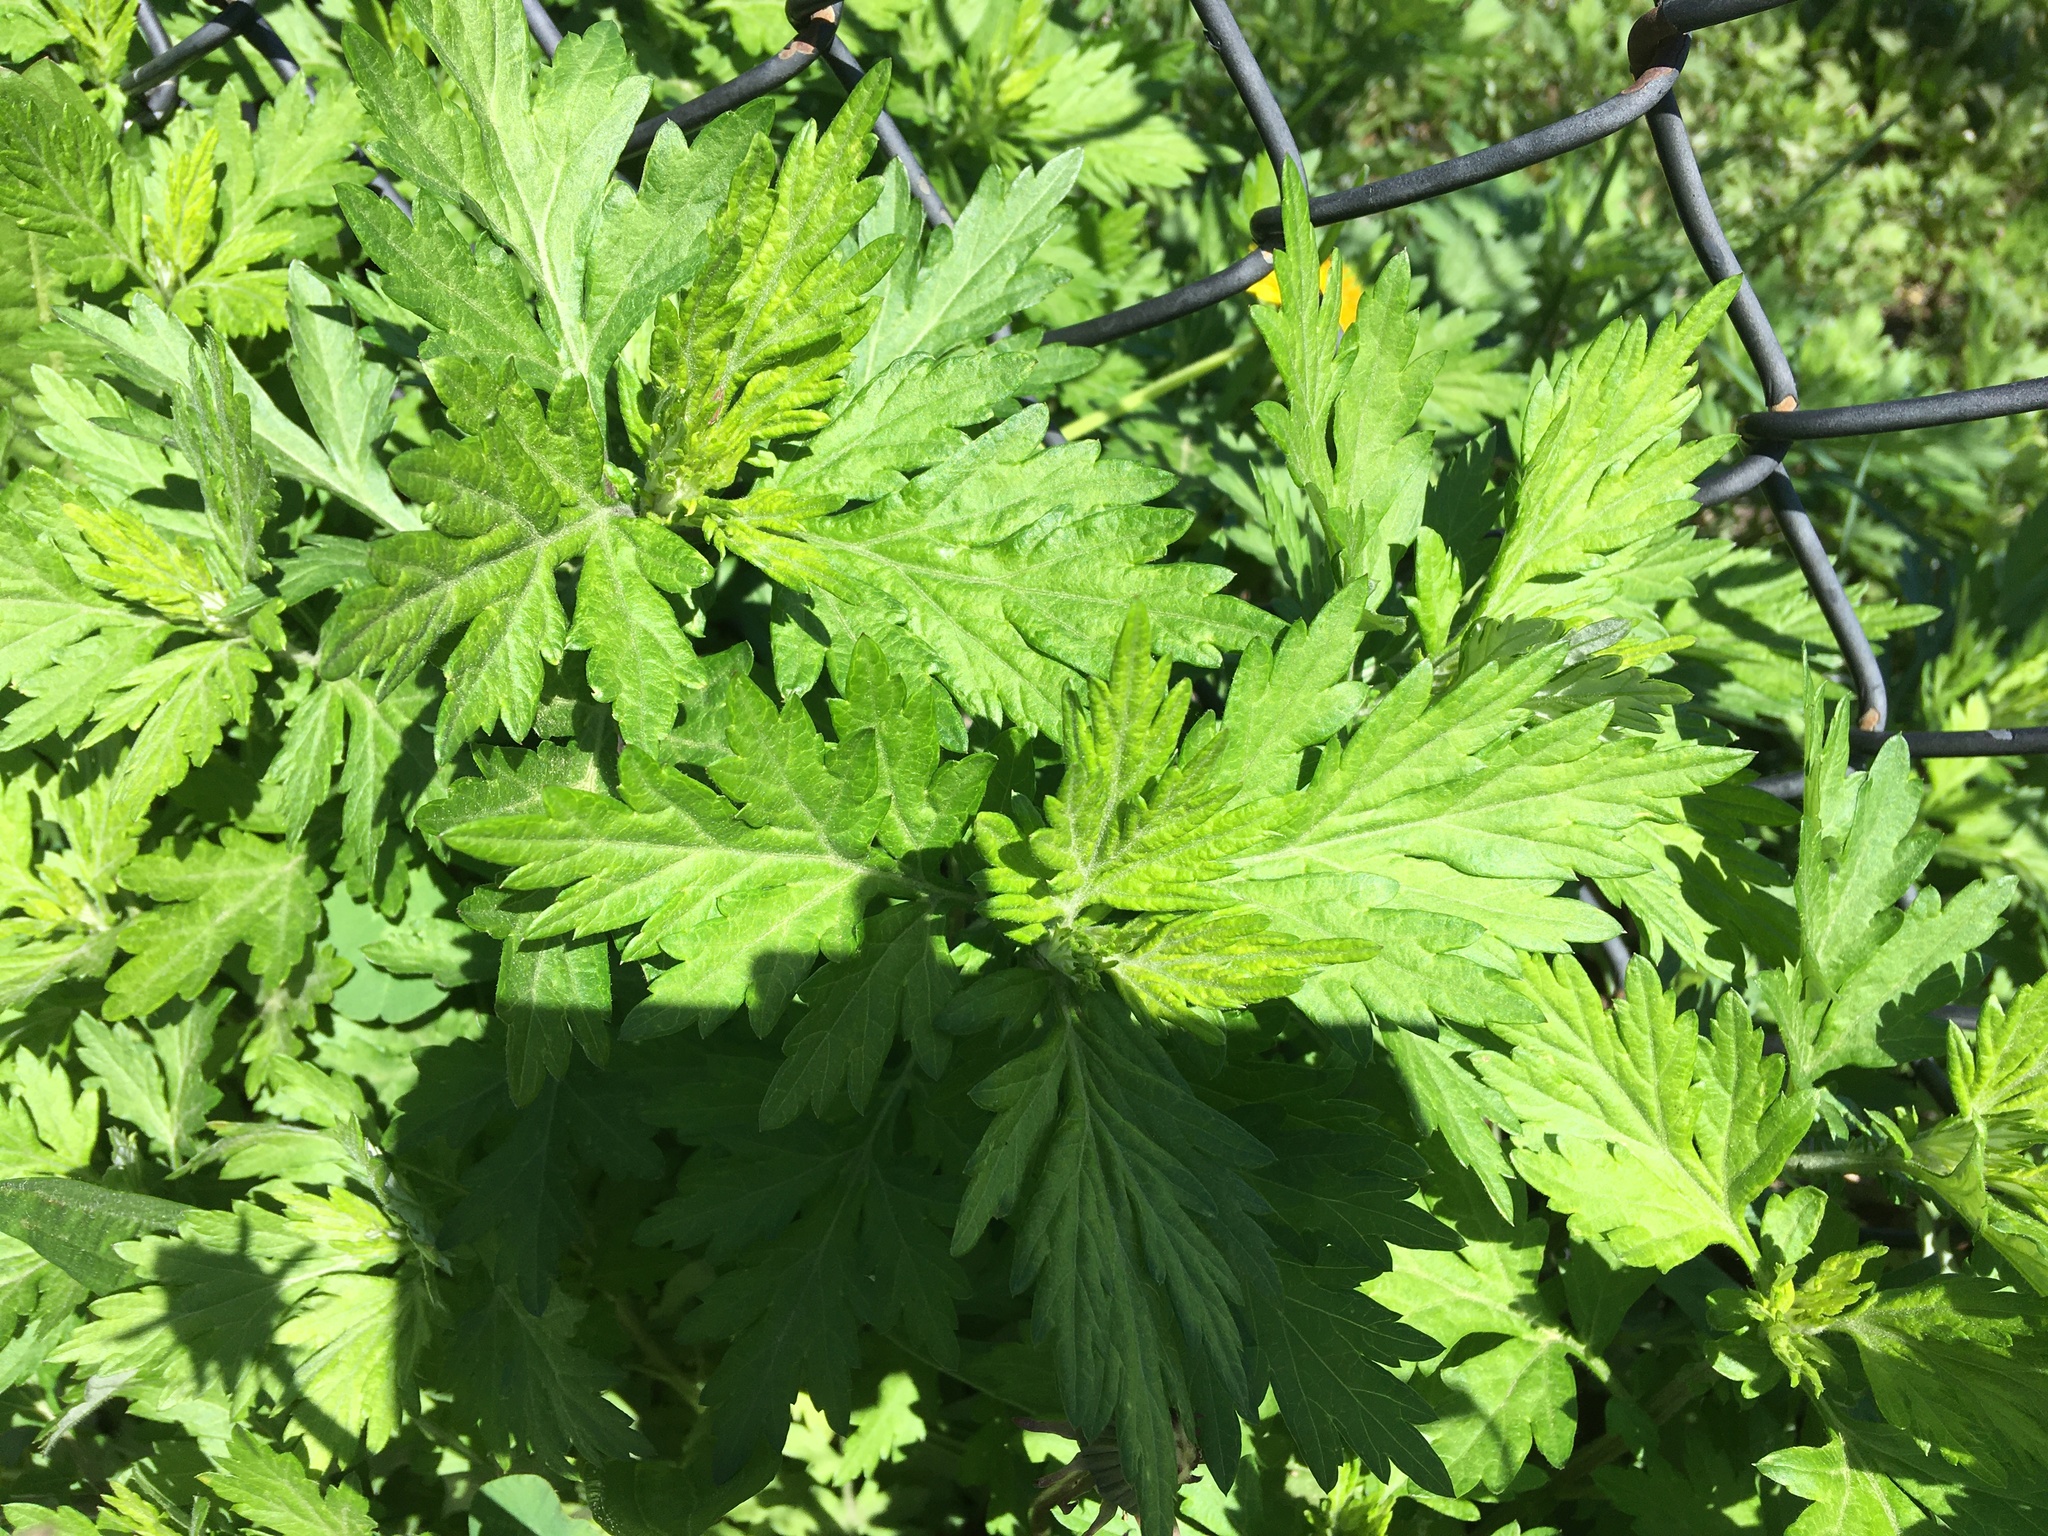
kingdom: Plantae
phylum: Tracheophyta
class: Magnoliopsida
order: Asterales
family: Asteraceae
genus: Artemisia
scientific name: Artemisia vulgaris
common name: Mugwort
